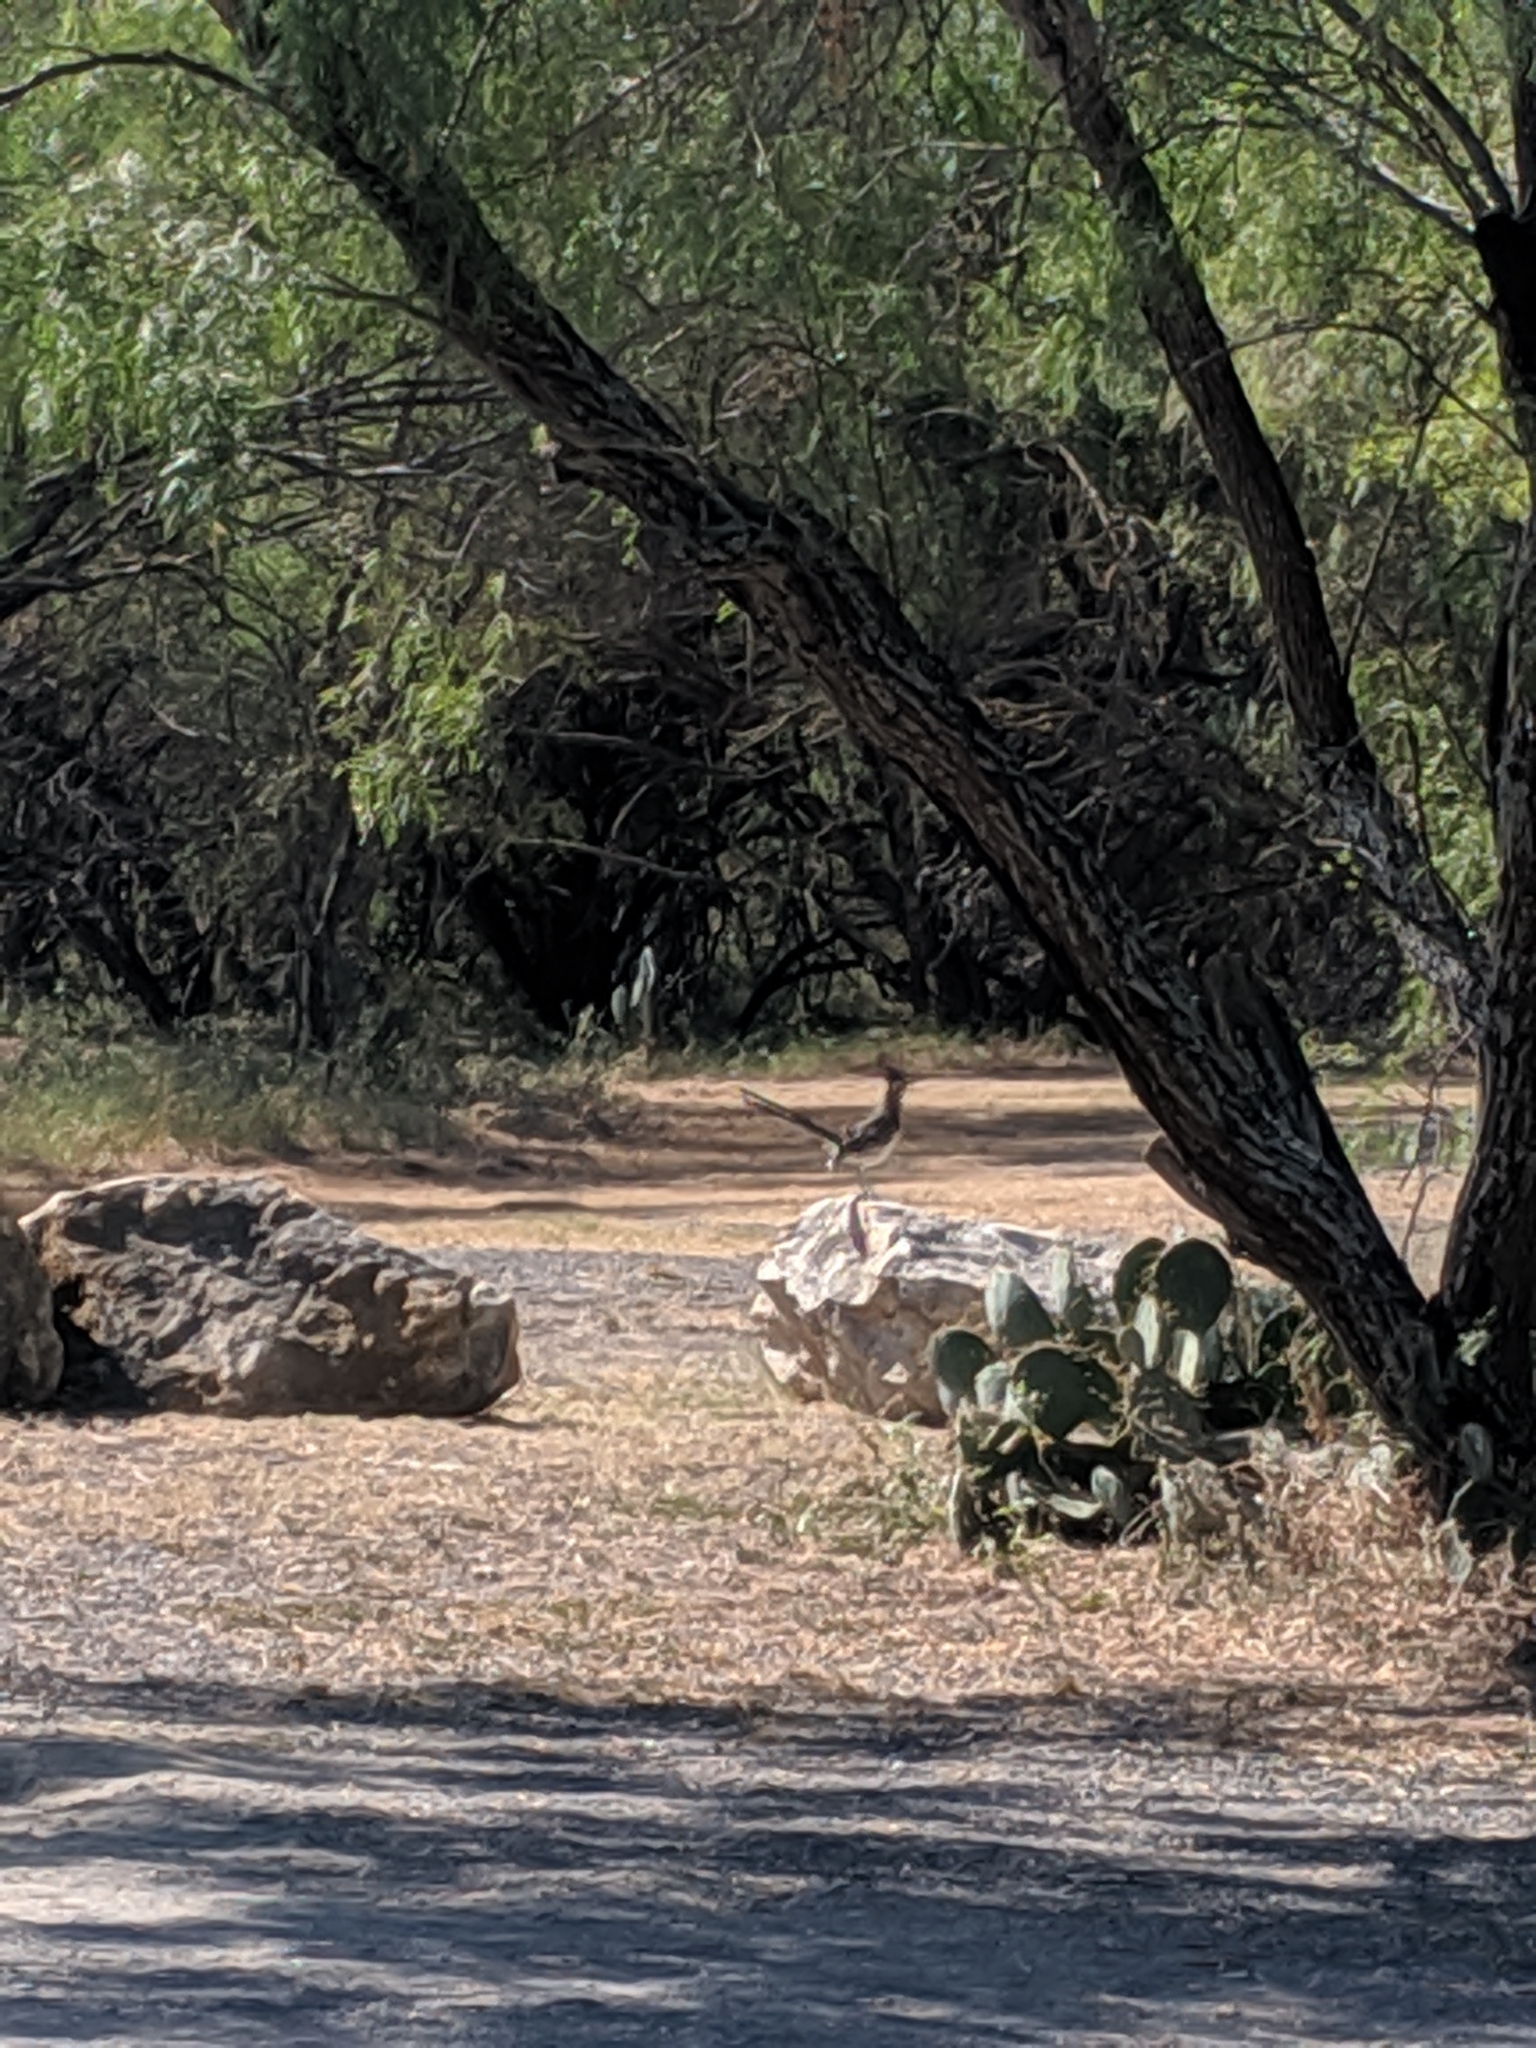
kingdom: Animalia
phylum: Chordata
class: Aves
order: Cuculiformes
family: Cuculidae
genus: Geococcyx
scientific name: Geococcyx californianus
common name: Greater roadrunner
